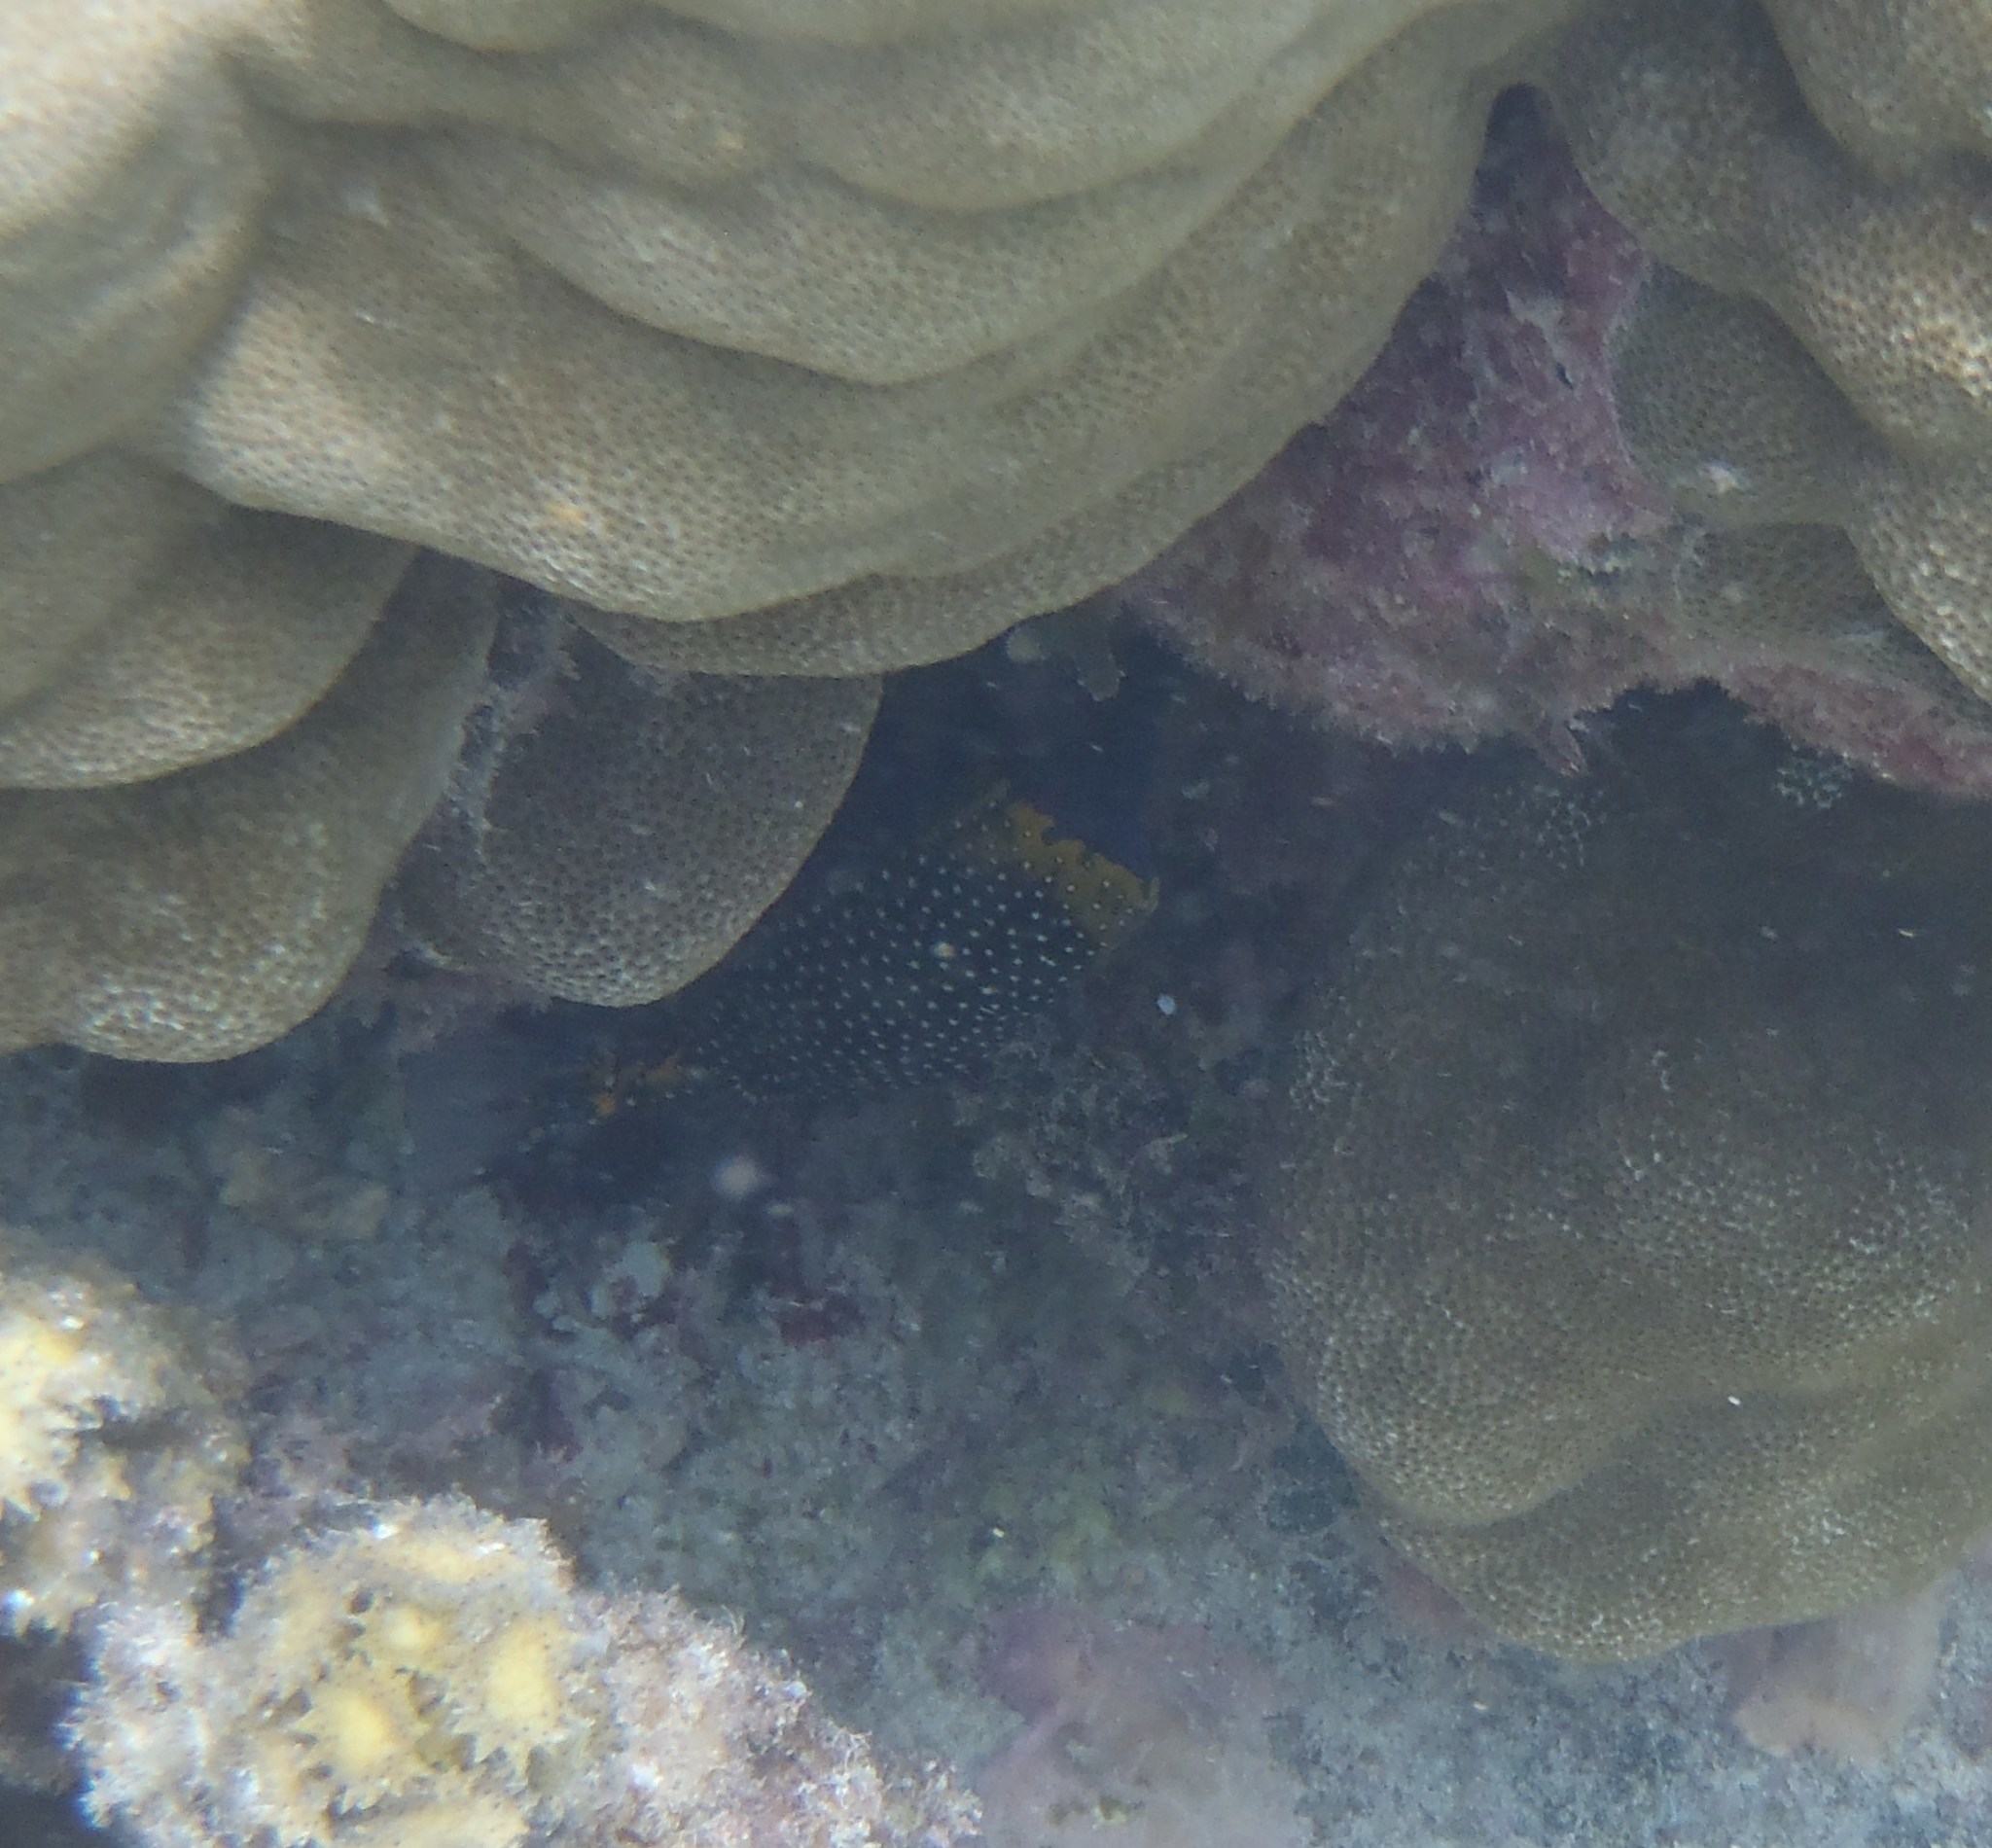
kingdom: Animalia
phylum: Chordata
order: Tetraodontiformes
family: Ostraciidae
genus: Ostracion
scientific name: Ostracion meleagris
